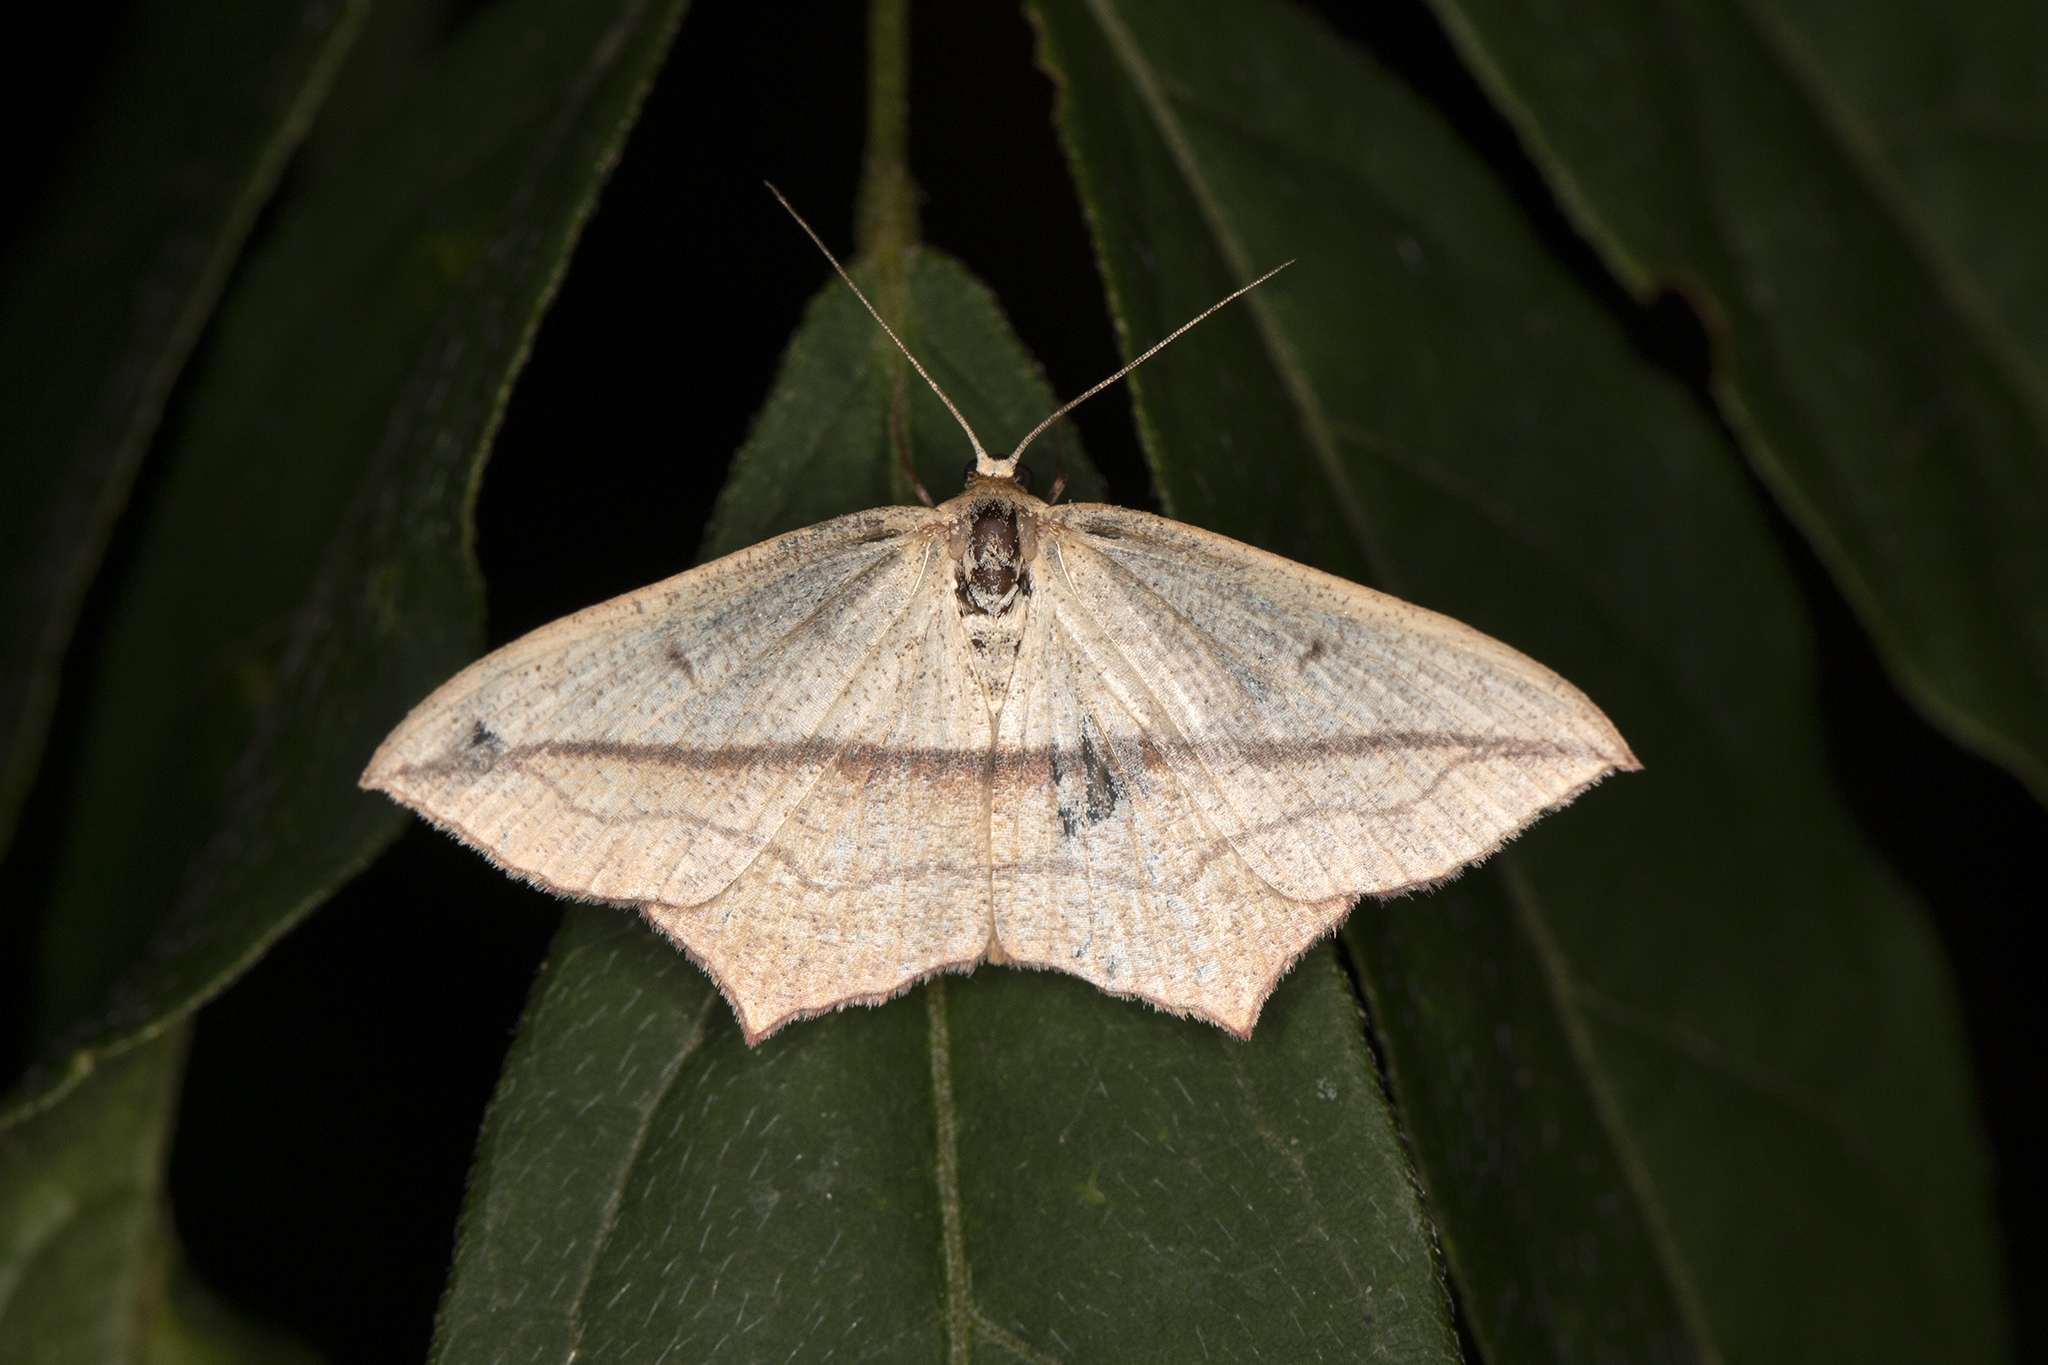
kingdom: Animalia
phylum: Arthropoda
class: Insecta
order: Lepidoptera
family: Geometridae
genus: Timandra
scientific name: Timandra comae
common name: Blood-vein
